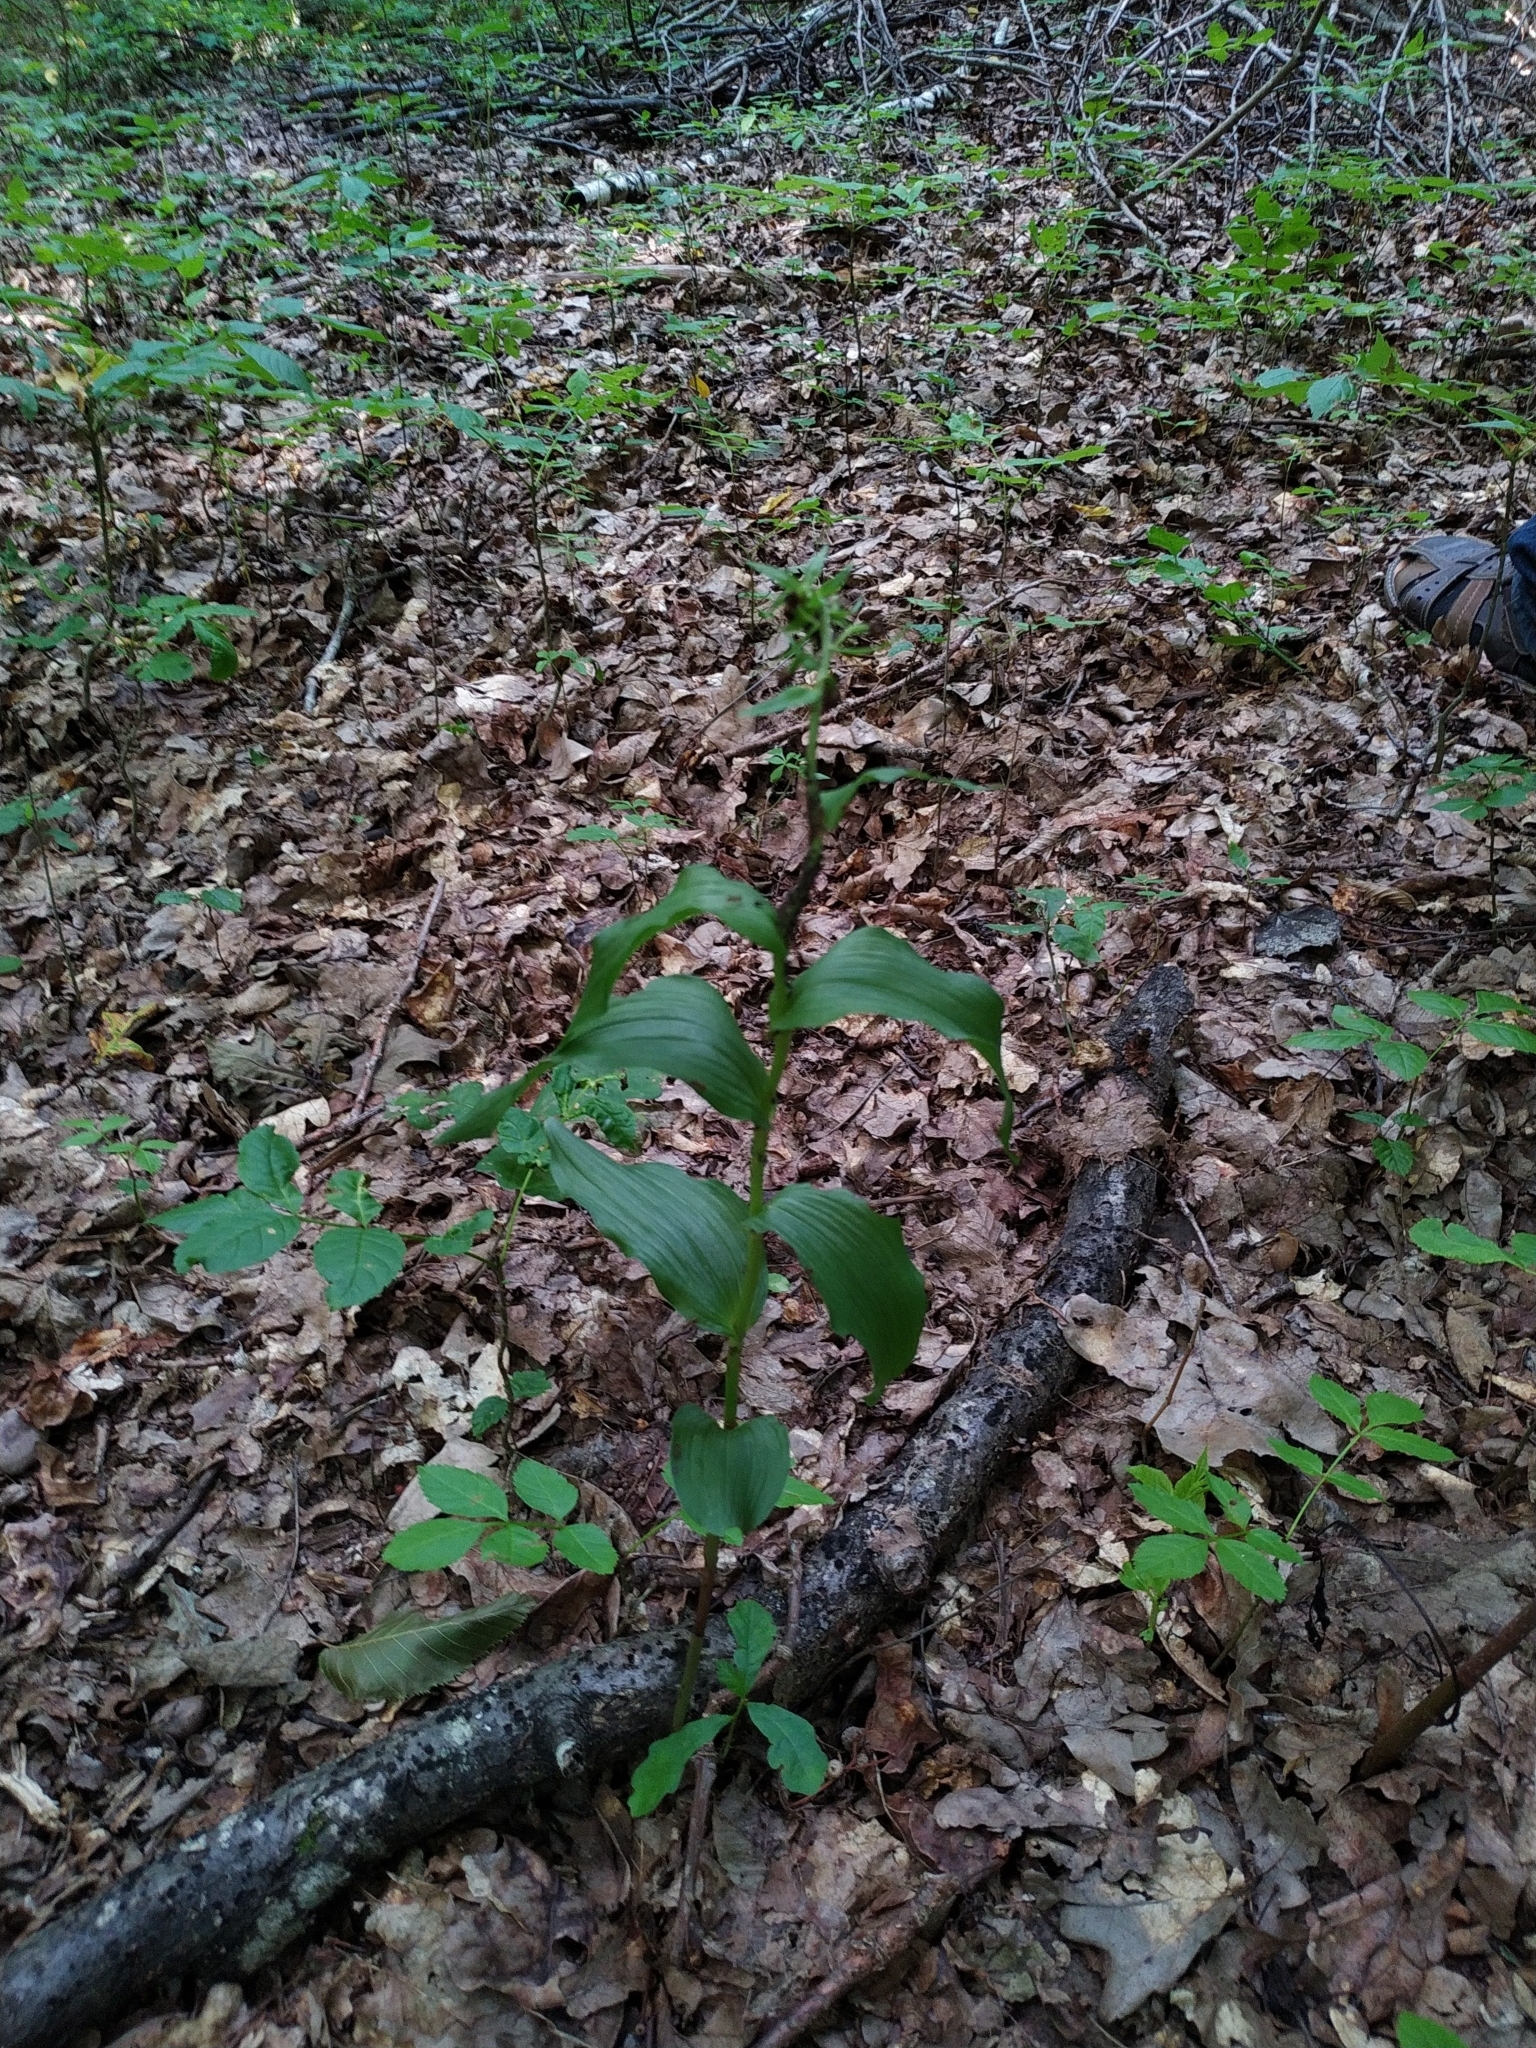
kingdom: Plantae
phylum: Tracheophyta
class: Liliopsida
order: Asparagales
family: Orchidaceae
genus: Epipactis
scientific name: Epipactis helleborine
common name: Broad-leaved helleborine
